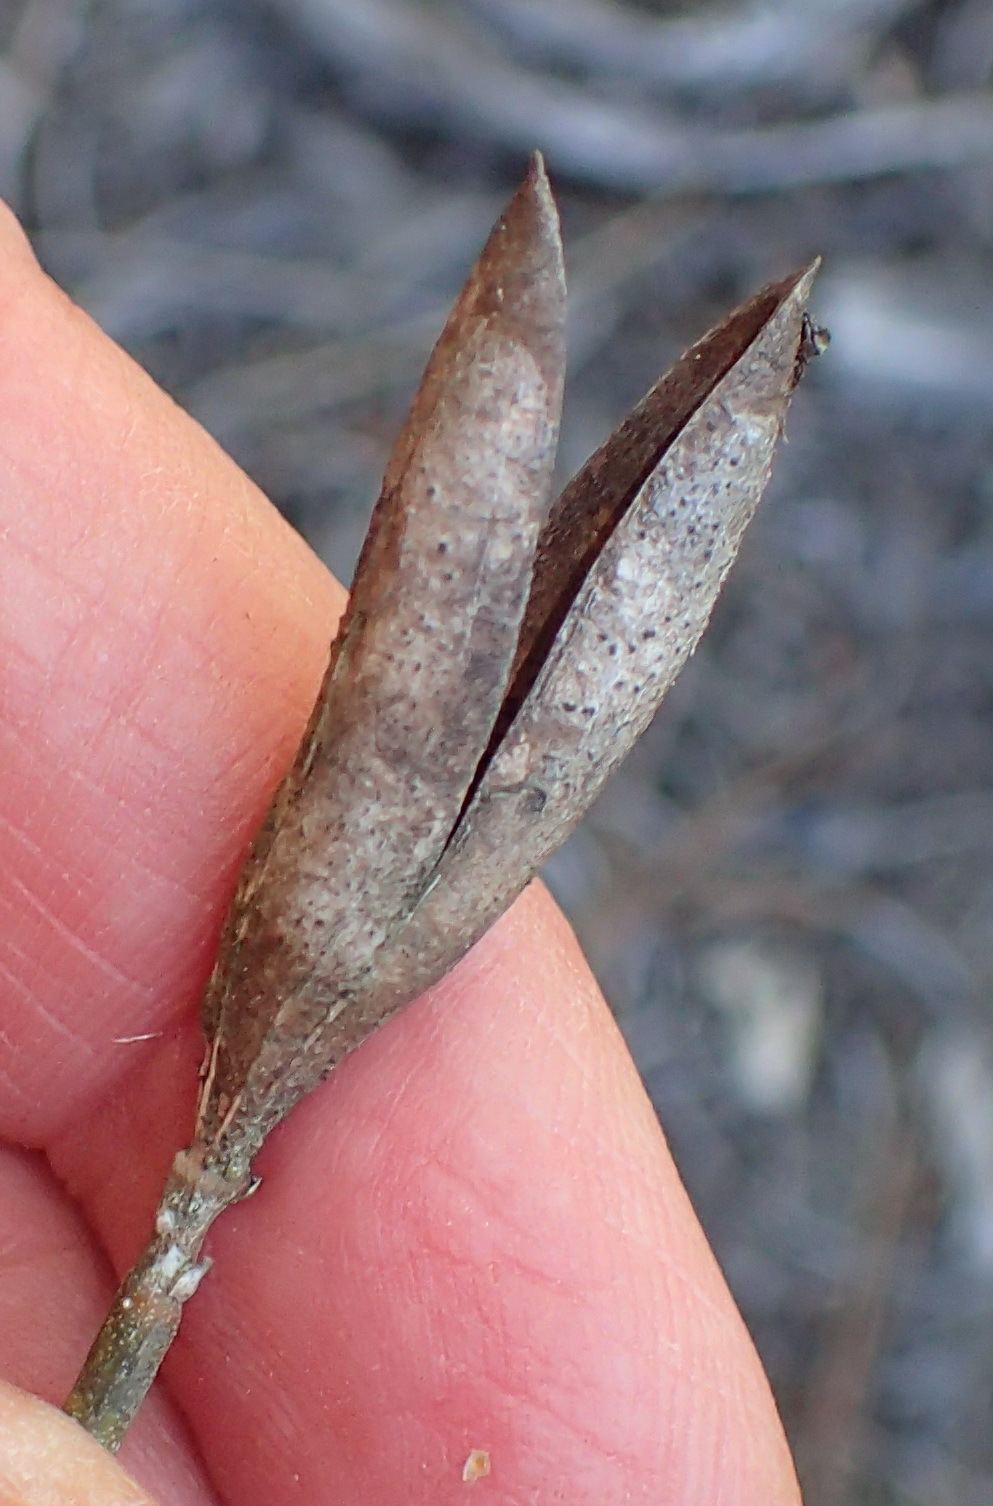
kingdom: Plantae
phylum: Tracheophyta
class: Magnoliopsida
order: Solanales
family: Montiniaceae
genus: Montinia
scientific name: Montinia caryophyllacea
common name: Wild clove-bush
